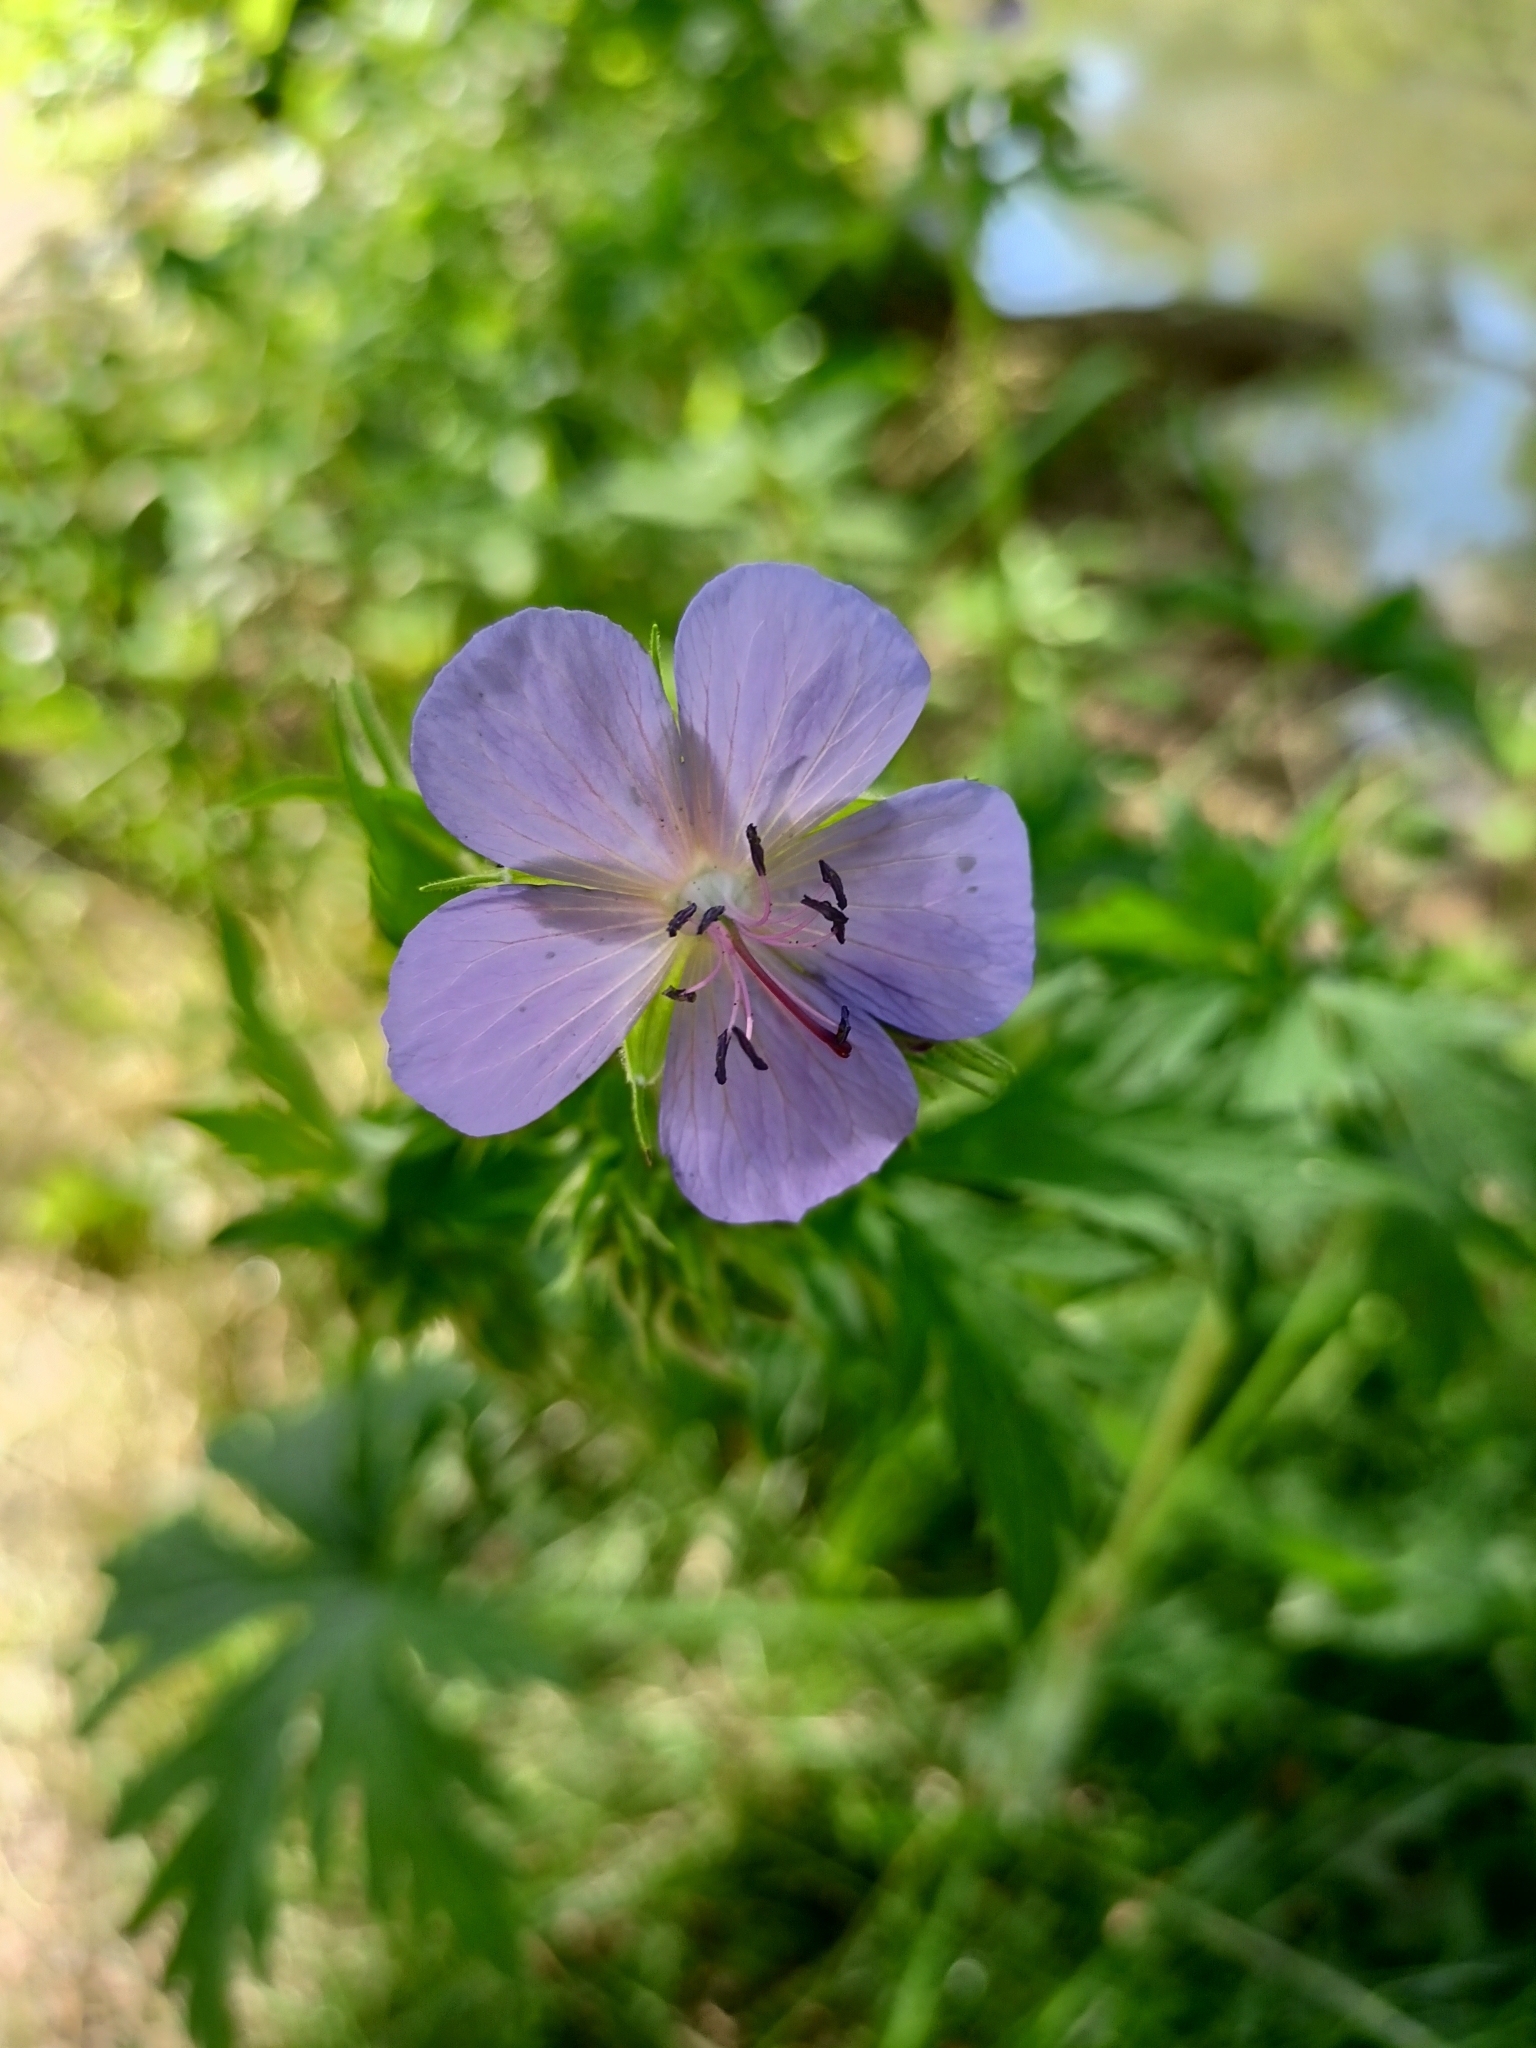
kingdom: Plantae
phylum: Tracheophyta
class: Magnoliopsida
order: Geraniales
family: Geraniaceae
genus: Geranium
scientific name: Geranium pratense
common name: Meadow crane's-bill
